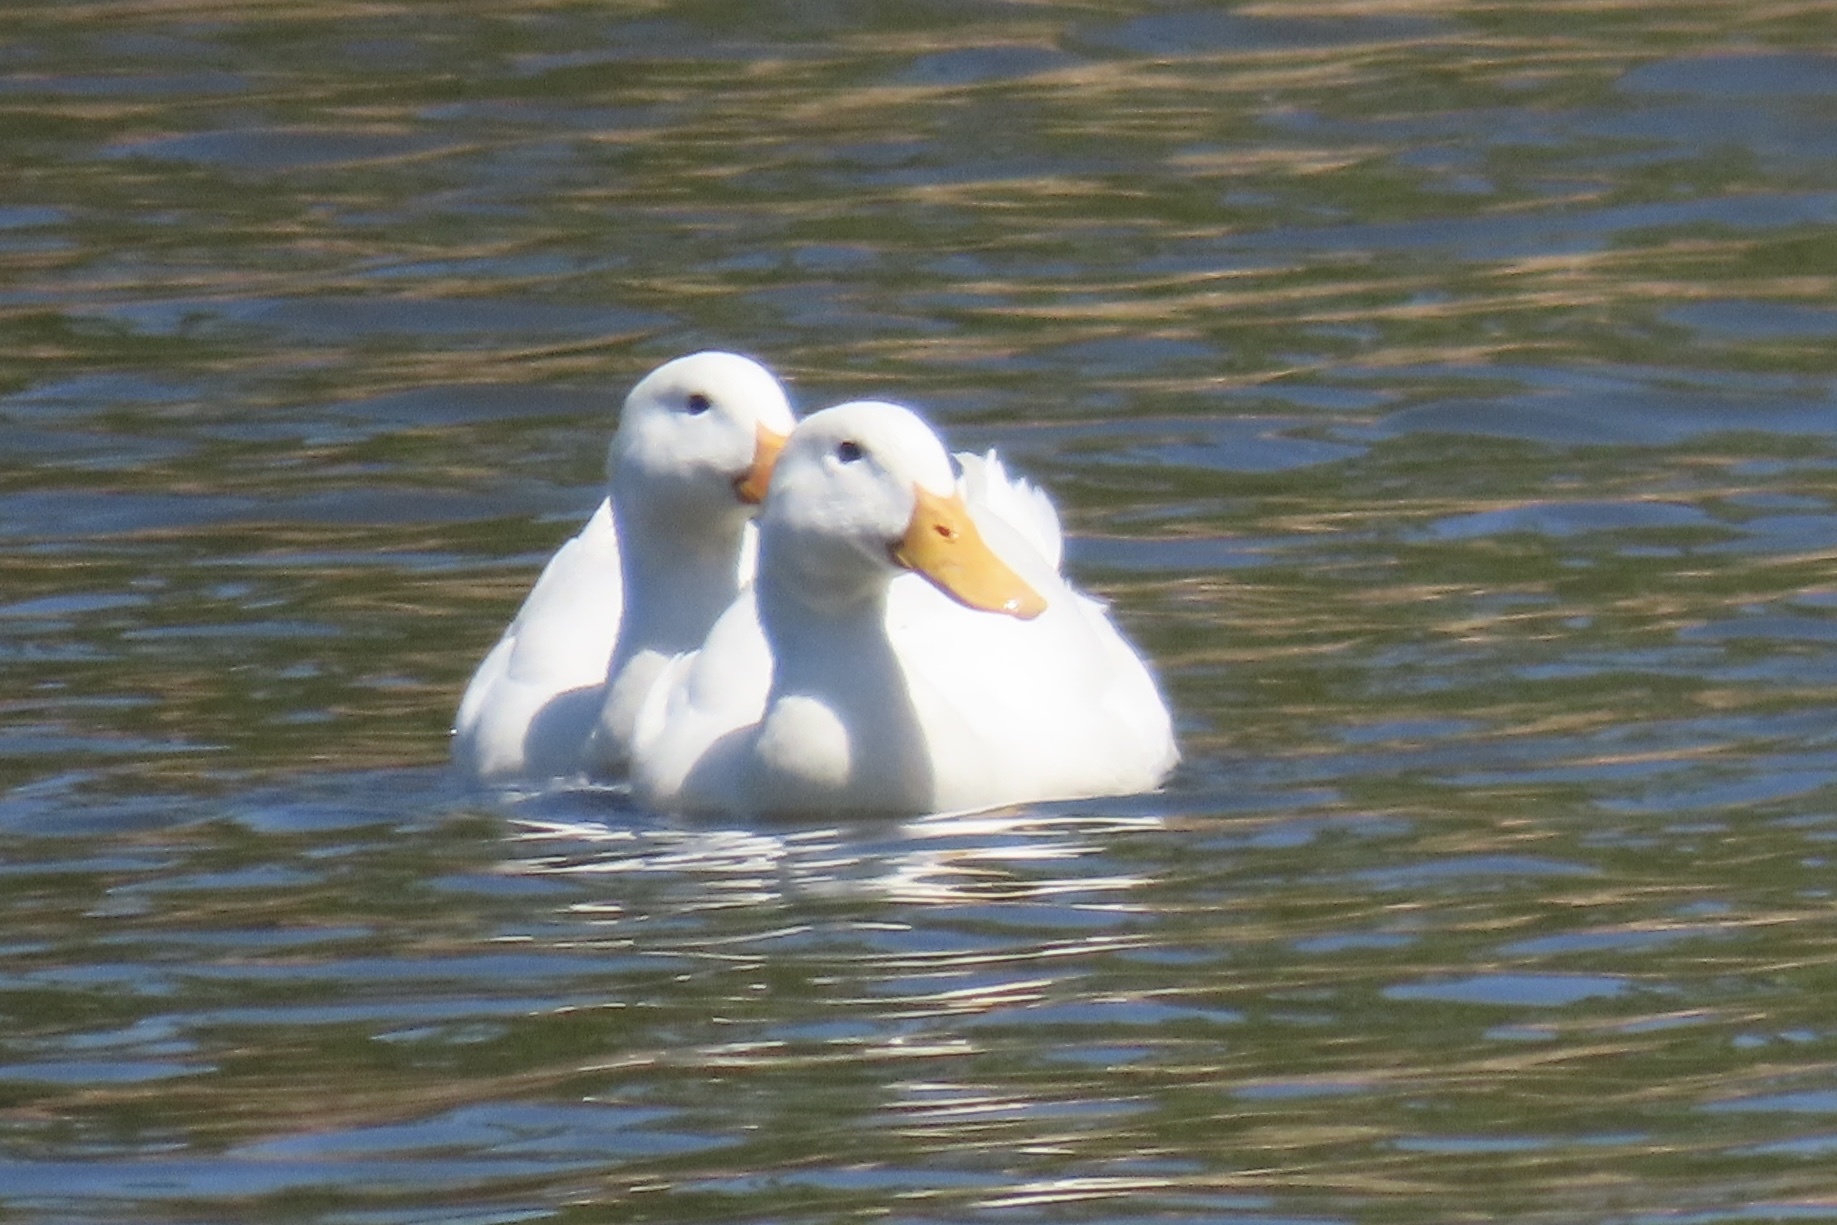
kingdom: Animalia
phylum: Chordata
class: Aves
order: Anseriformes
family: Anatidae
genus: Anas
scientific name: Anas platyrhynchos
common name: Mallard
